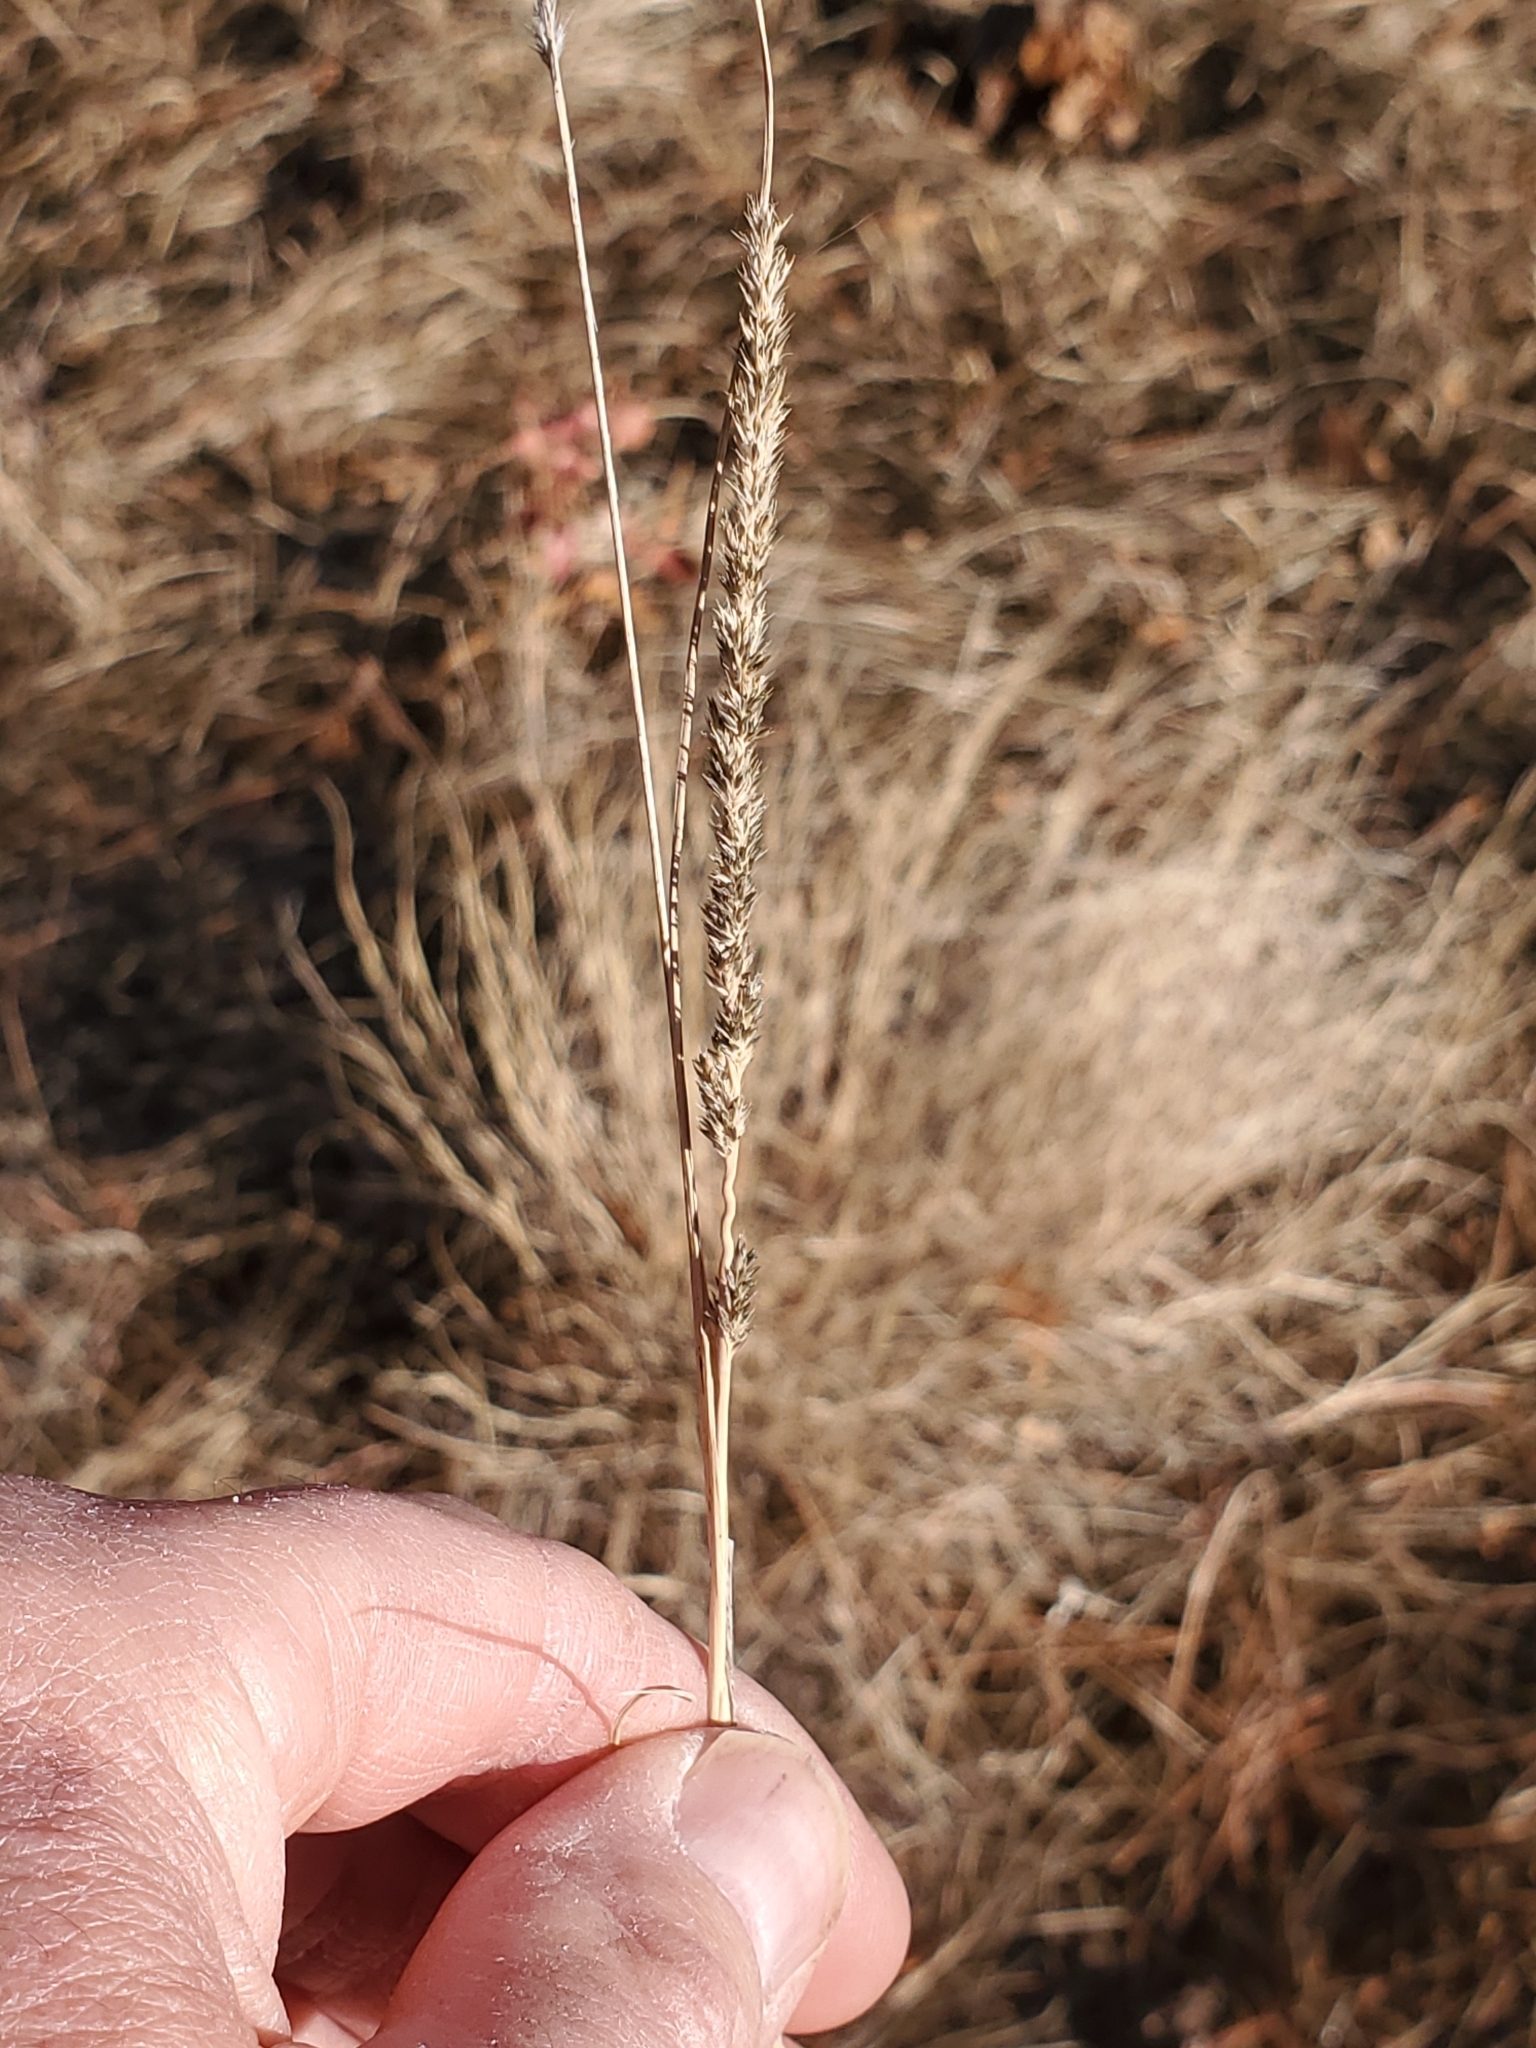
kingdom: Plantae
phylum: Tracheophyta
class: Liliopsida
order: Poales
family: Poaceae
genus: Muhlenbergia
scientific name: Muhlenbergia wrightii
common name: Spike muhly
